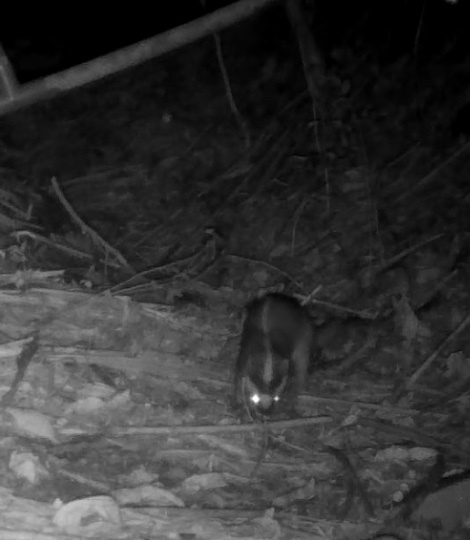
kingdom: Animalia
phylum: Chordata
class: Mammalia
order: Carnivora
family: Mustelidae
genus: Melogale
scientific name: Melogale
